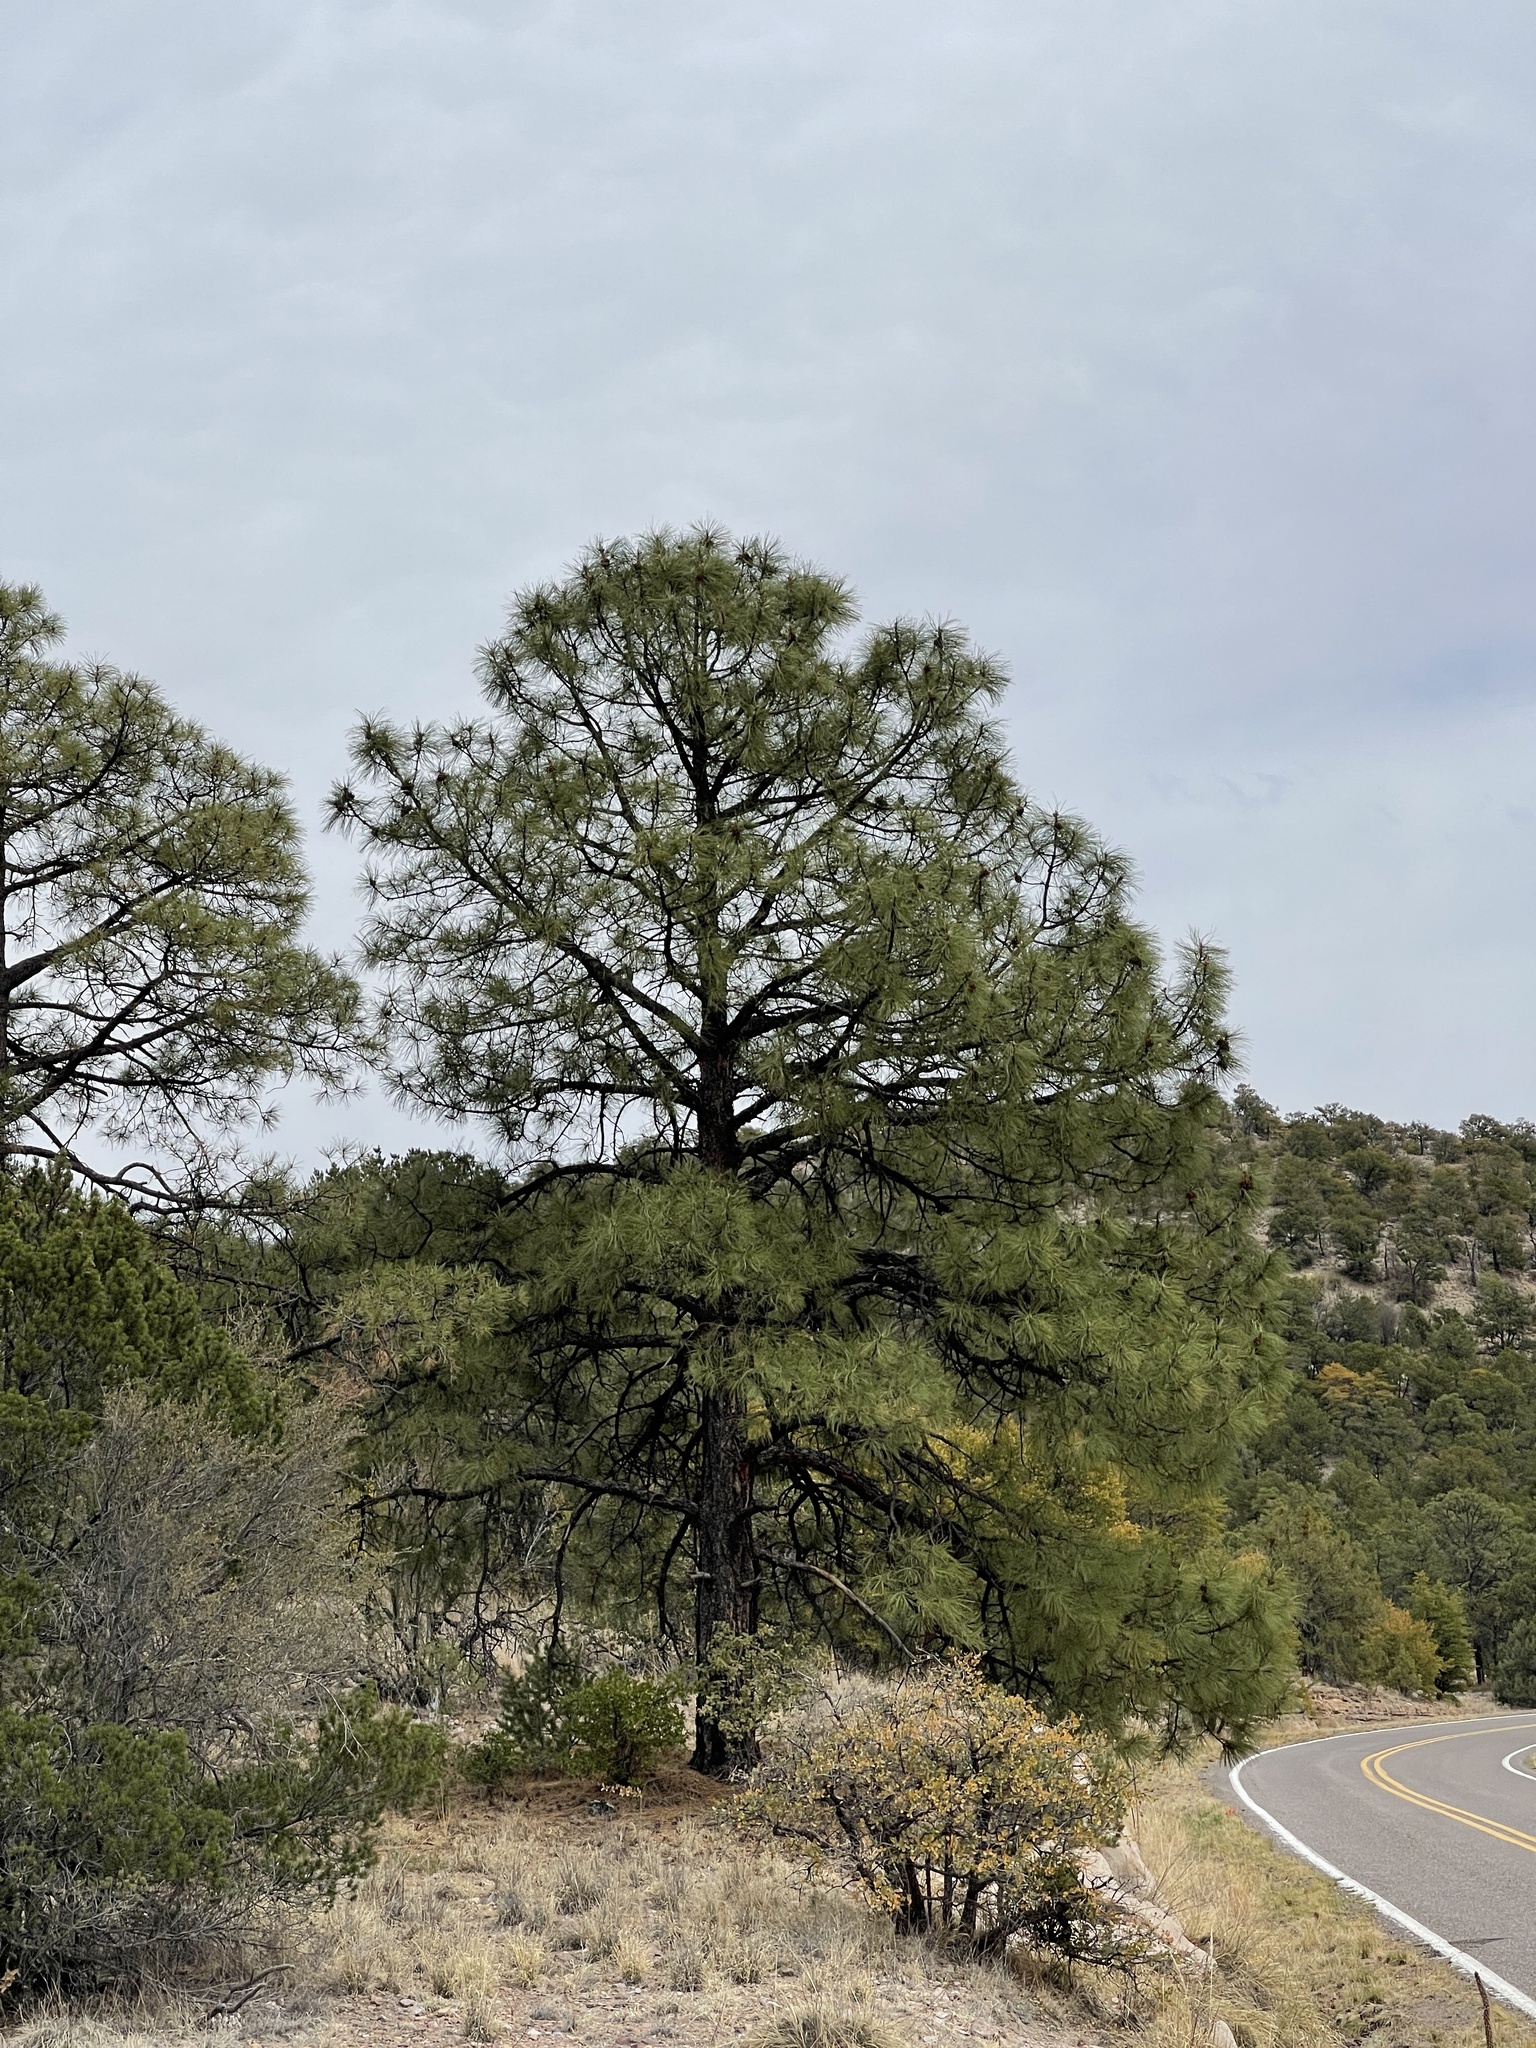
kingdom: Plantae
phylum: Tracheophyta
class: Pinopsida
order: Pinales
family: Pinaceae
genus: Pinus
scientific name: Pinus ponderosa
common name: Western yellow-pine
